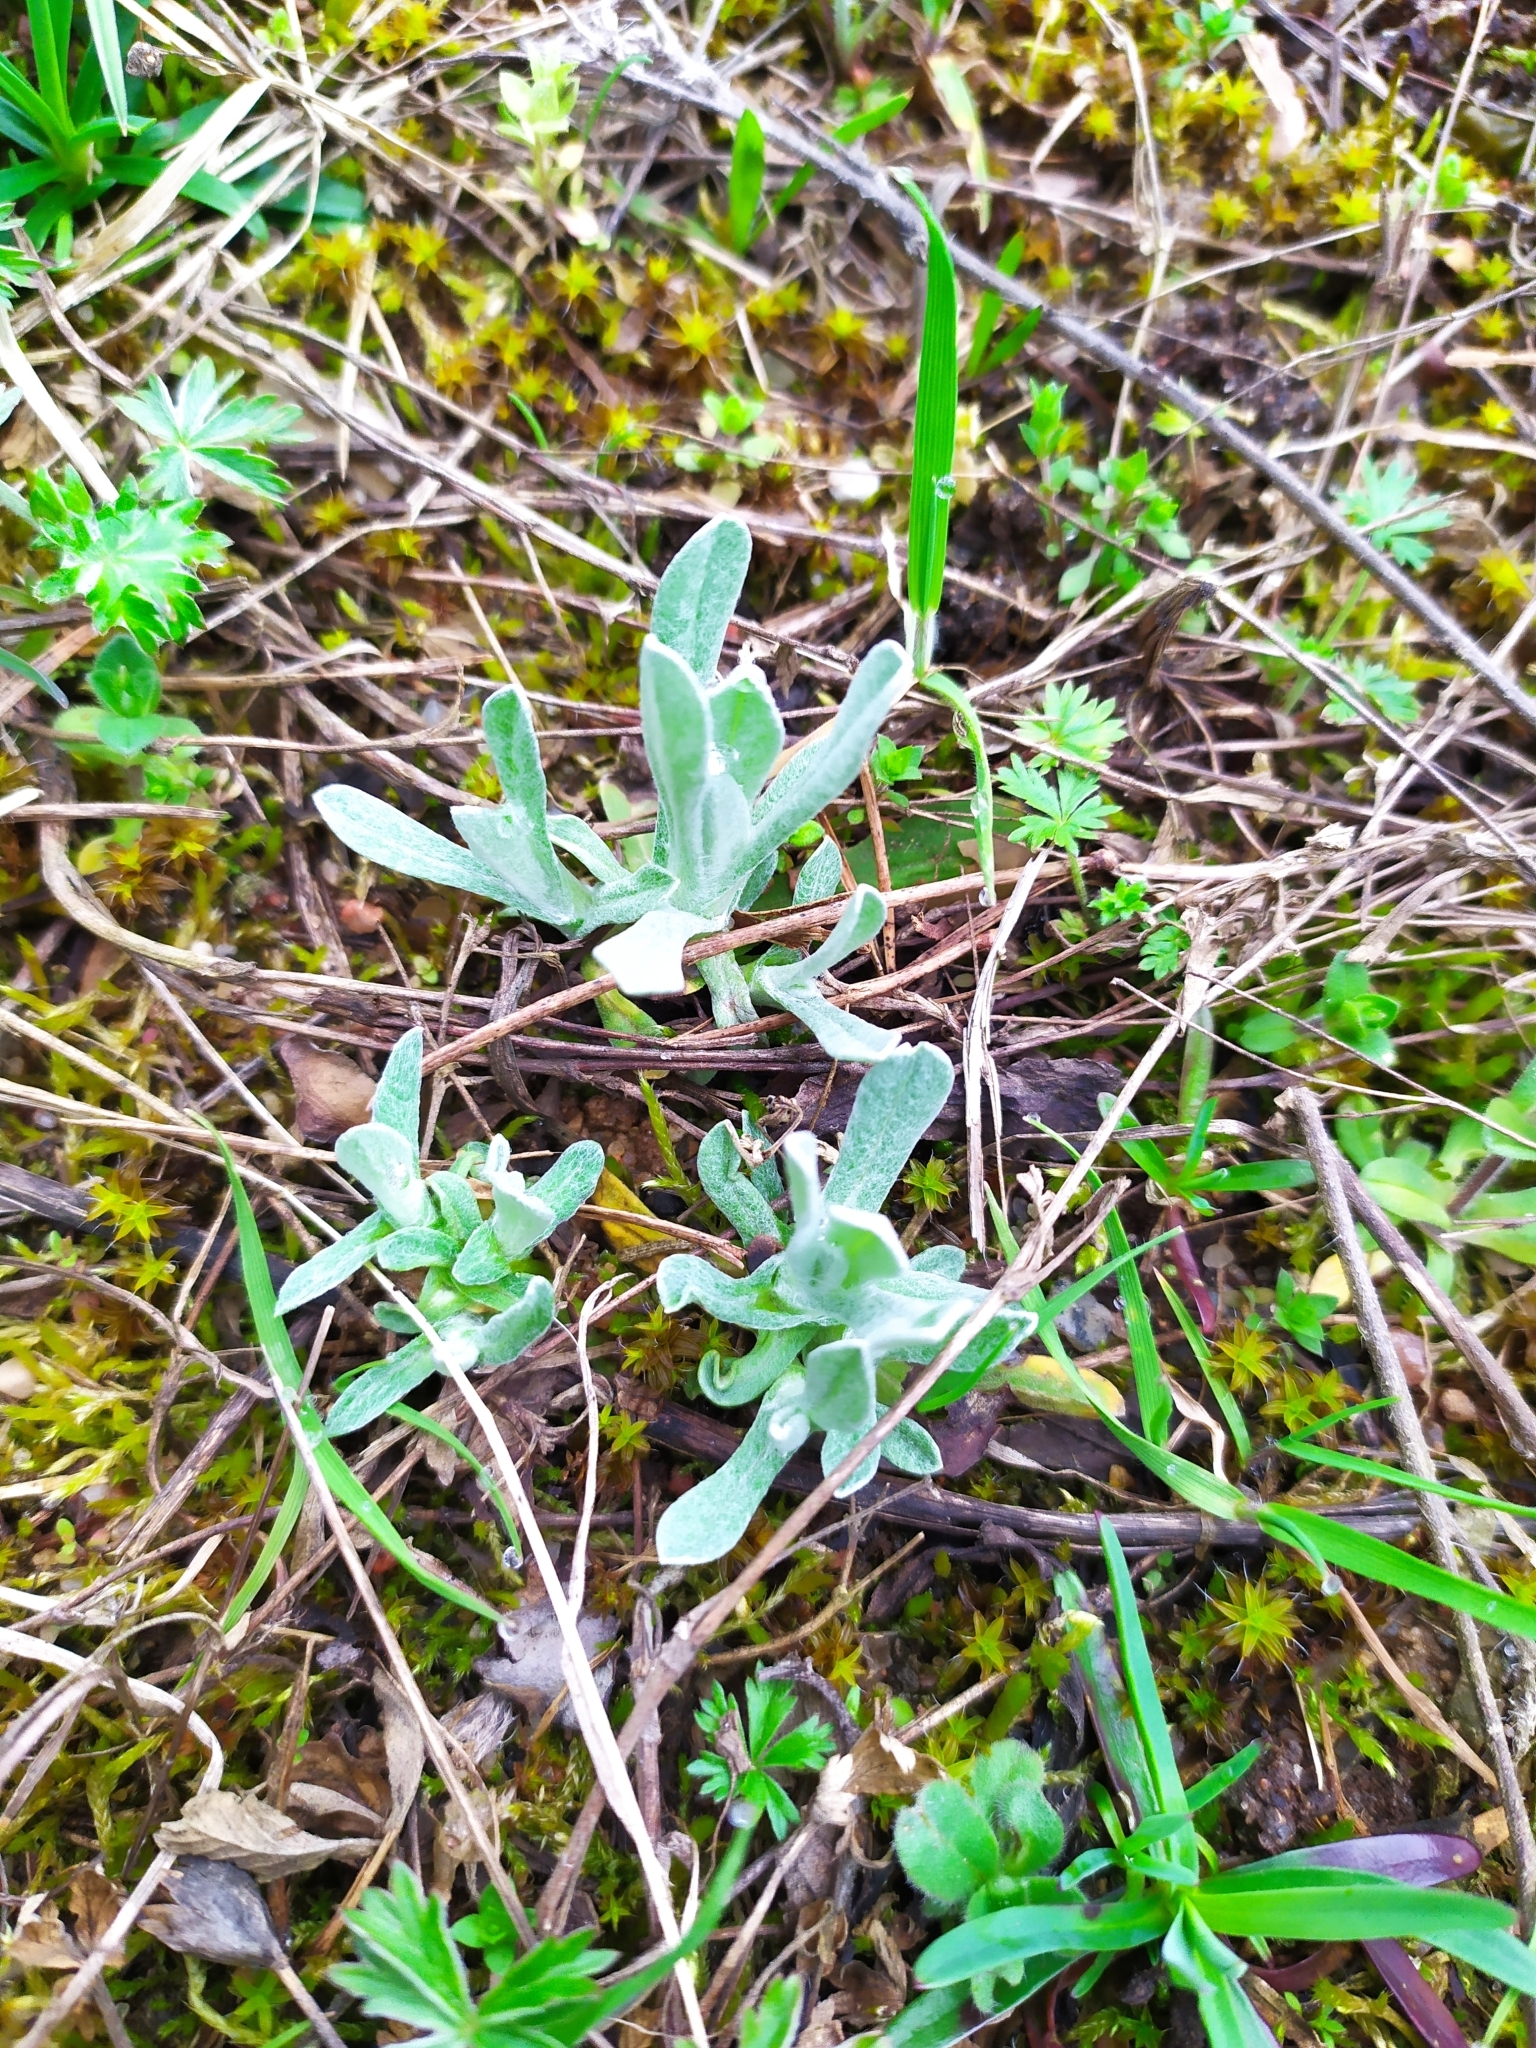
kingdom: Plantae
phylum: Tracheophyta
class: Magnoliopsida
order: Asterales
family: Asteraceae
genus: Helichrysum
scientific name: Helichrysum arenarium
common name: Strawflower
